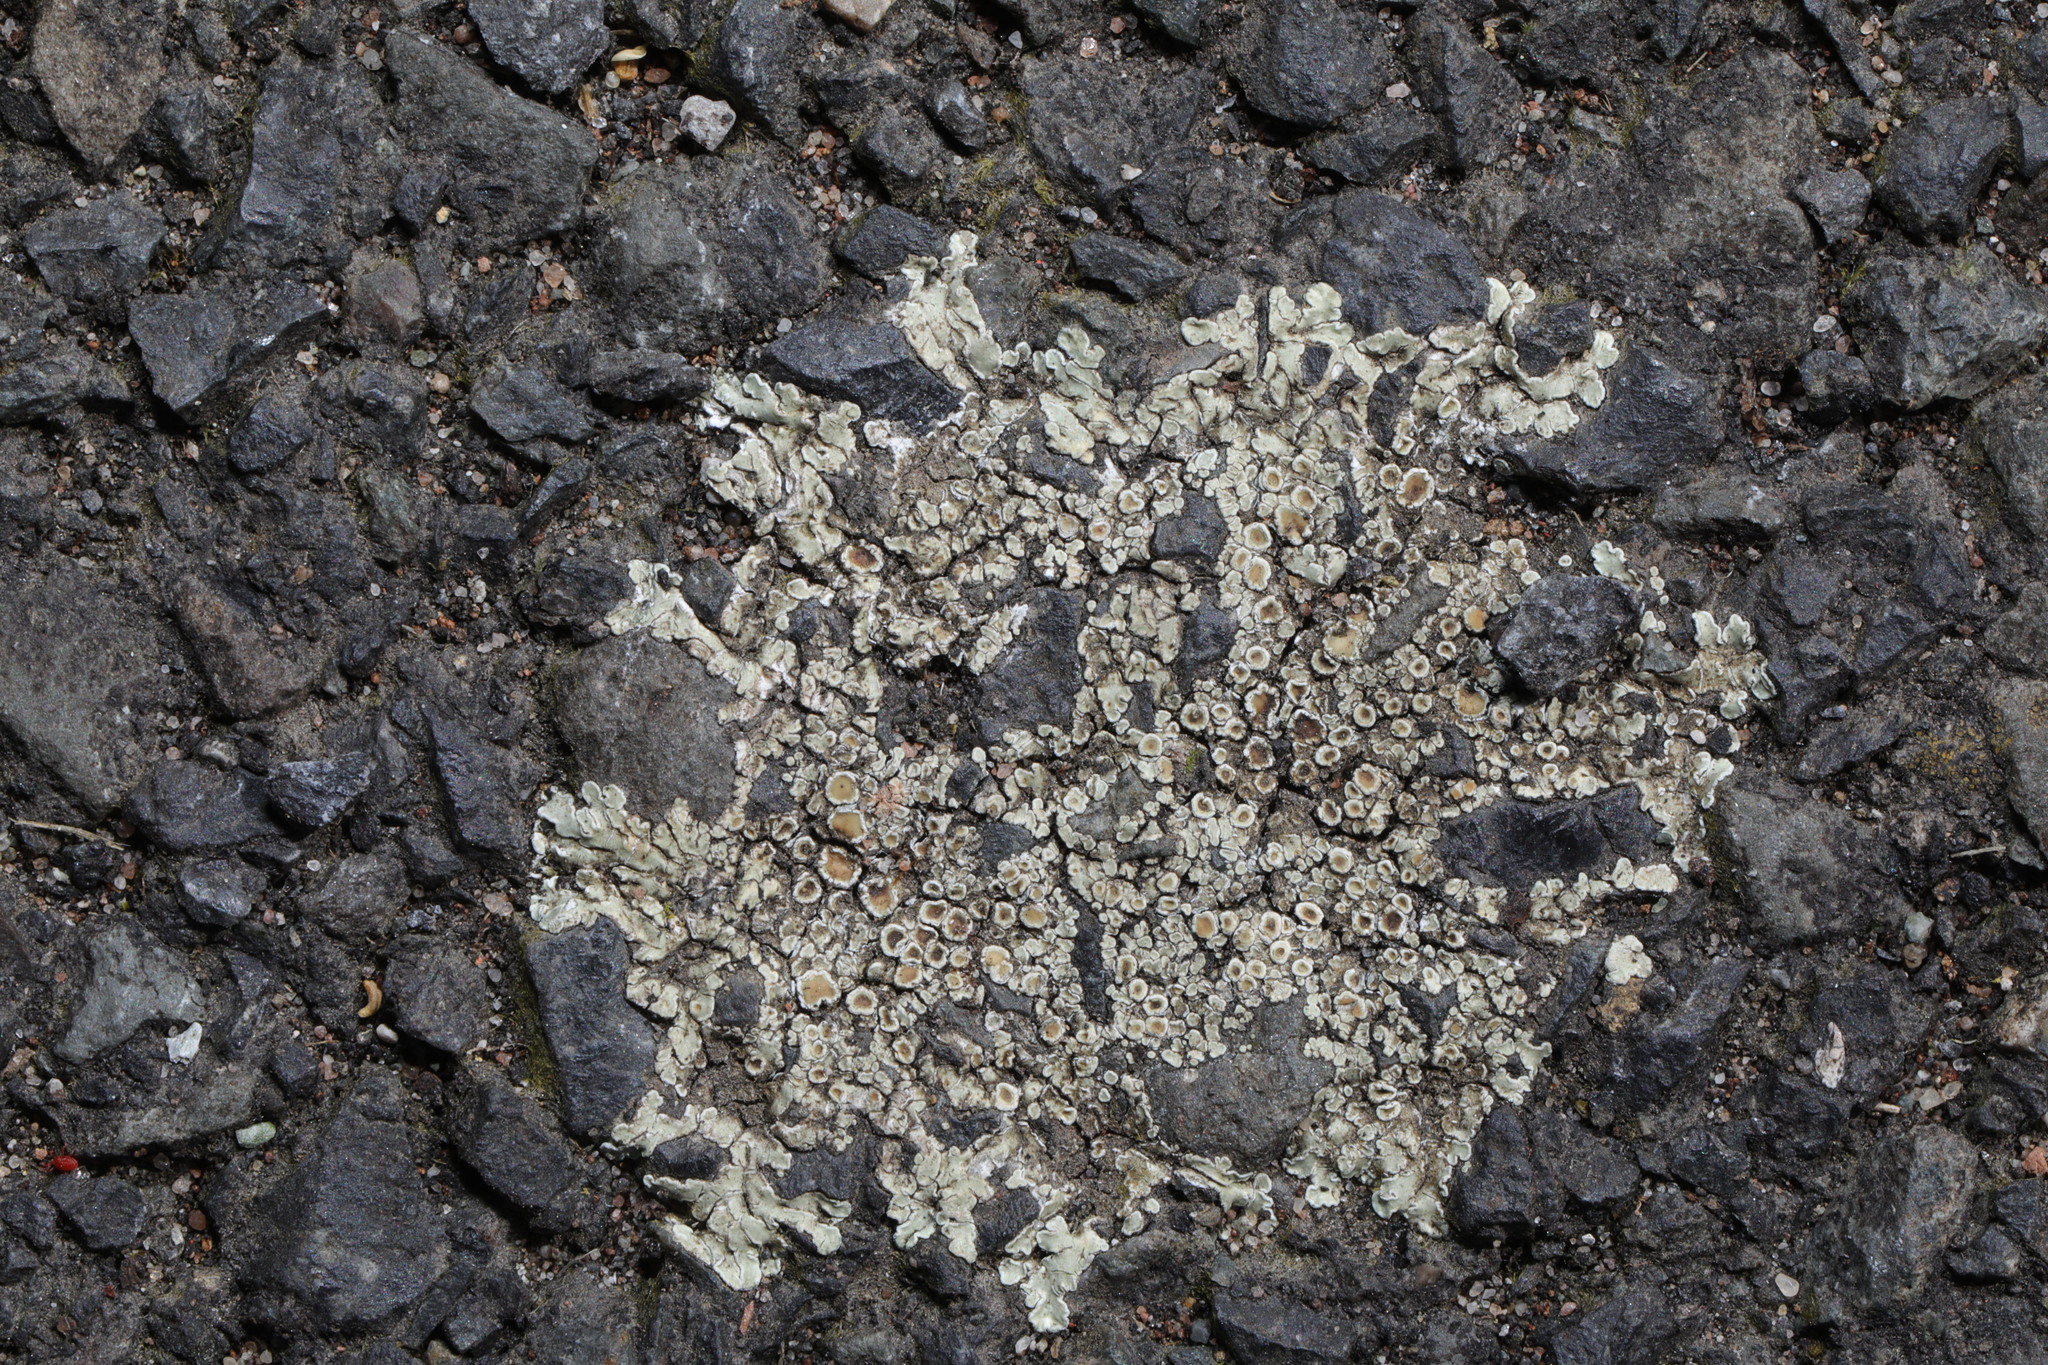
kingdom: Fungi
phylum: Ascomycota
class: Lecanoromycetes
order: Lecanorales
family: Lecanoraceae
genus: Protoparmeliopsis
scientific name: Protoparmeliopsis muralis
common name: Stonewall rim lichen
